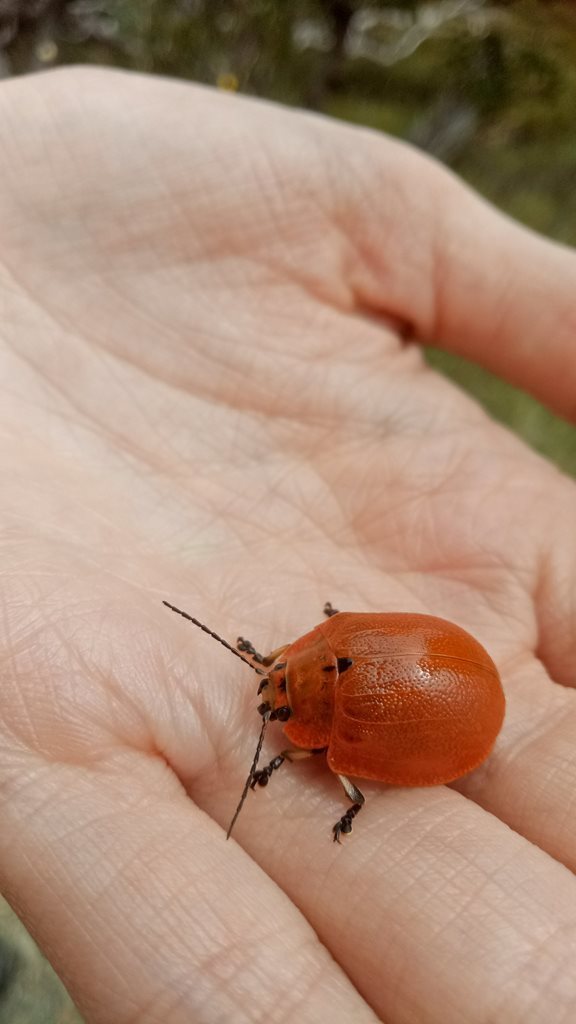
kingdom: Animalia
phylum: Arthropoda
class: Insecta
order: Coleoptera
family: Chrysomelidae
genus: Paropsis
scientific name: Paropsis
